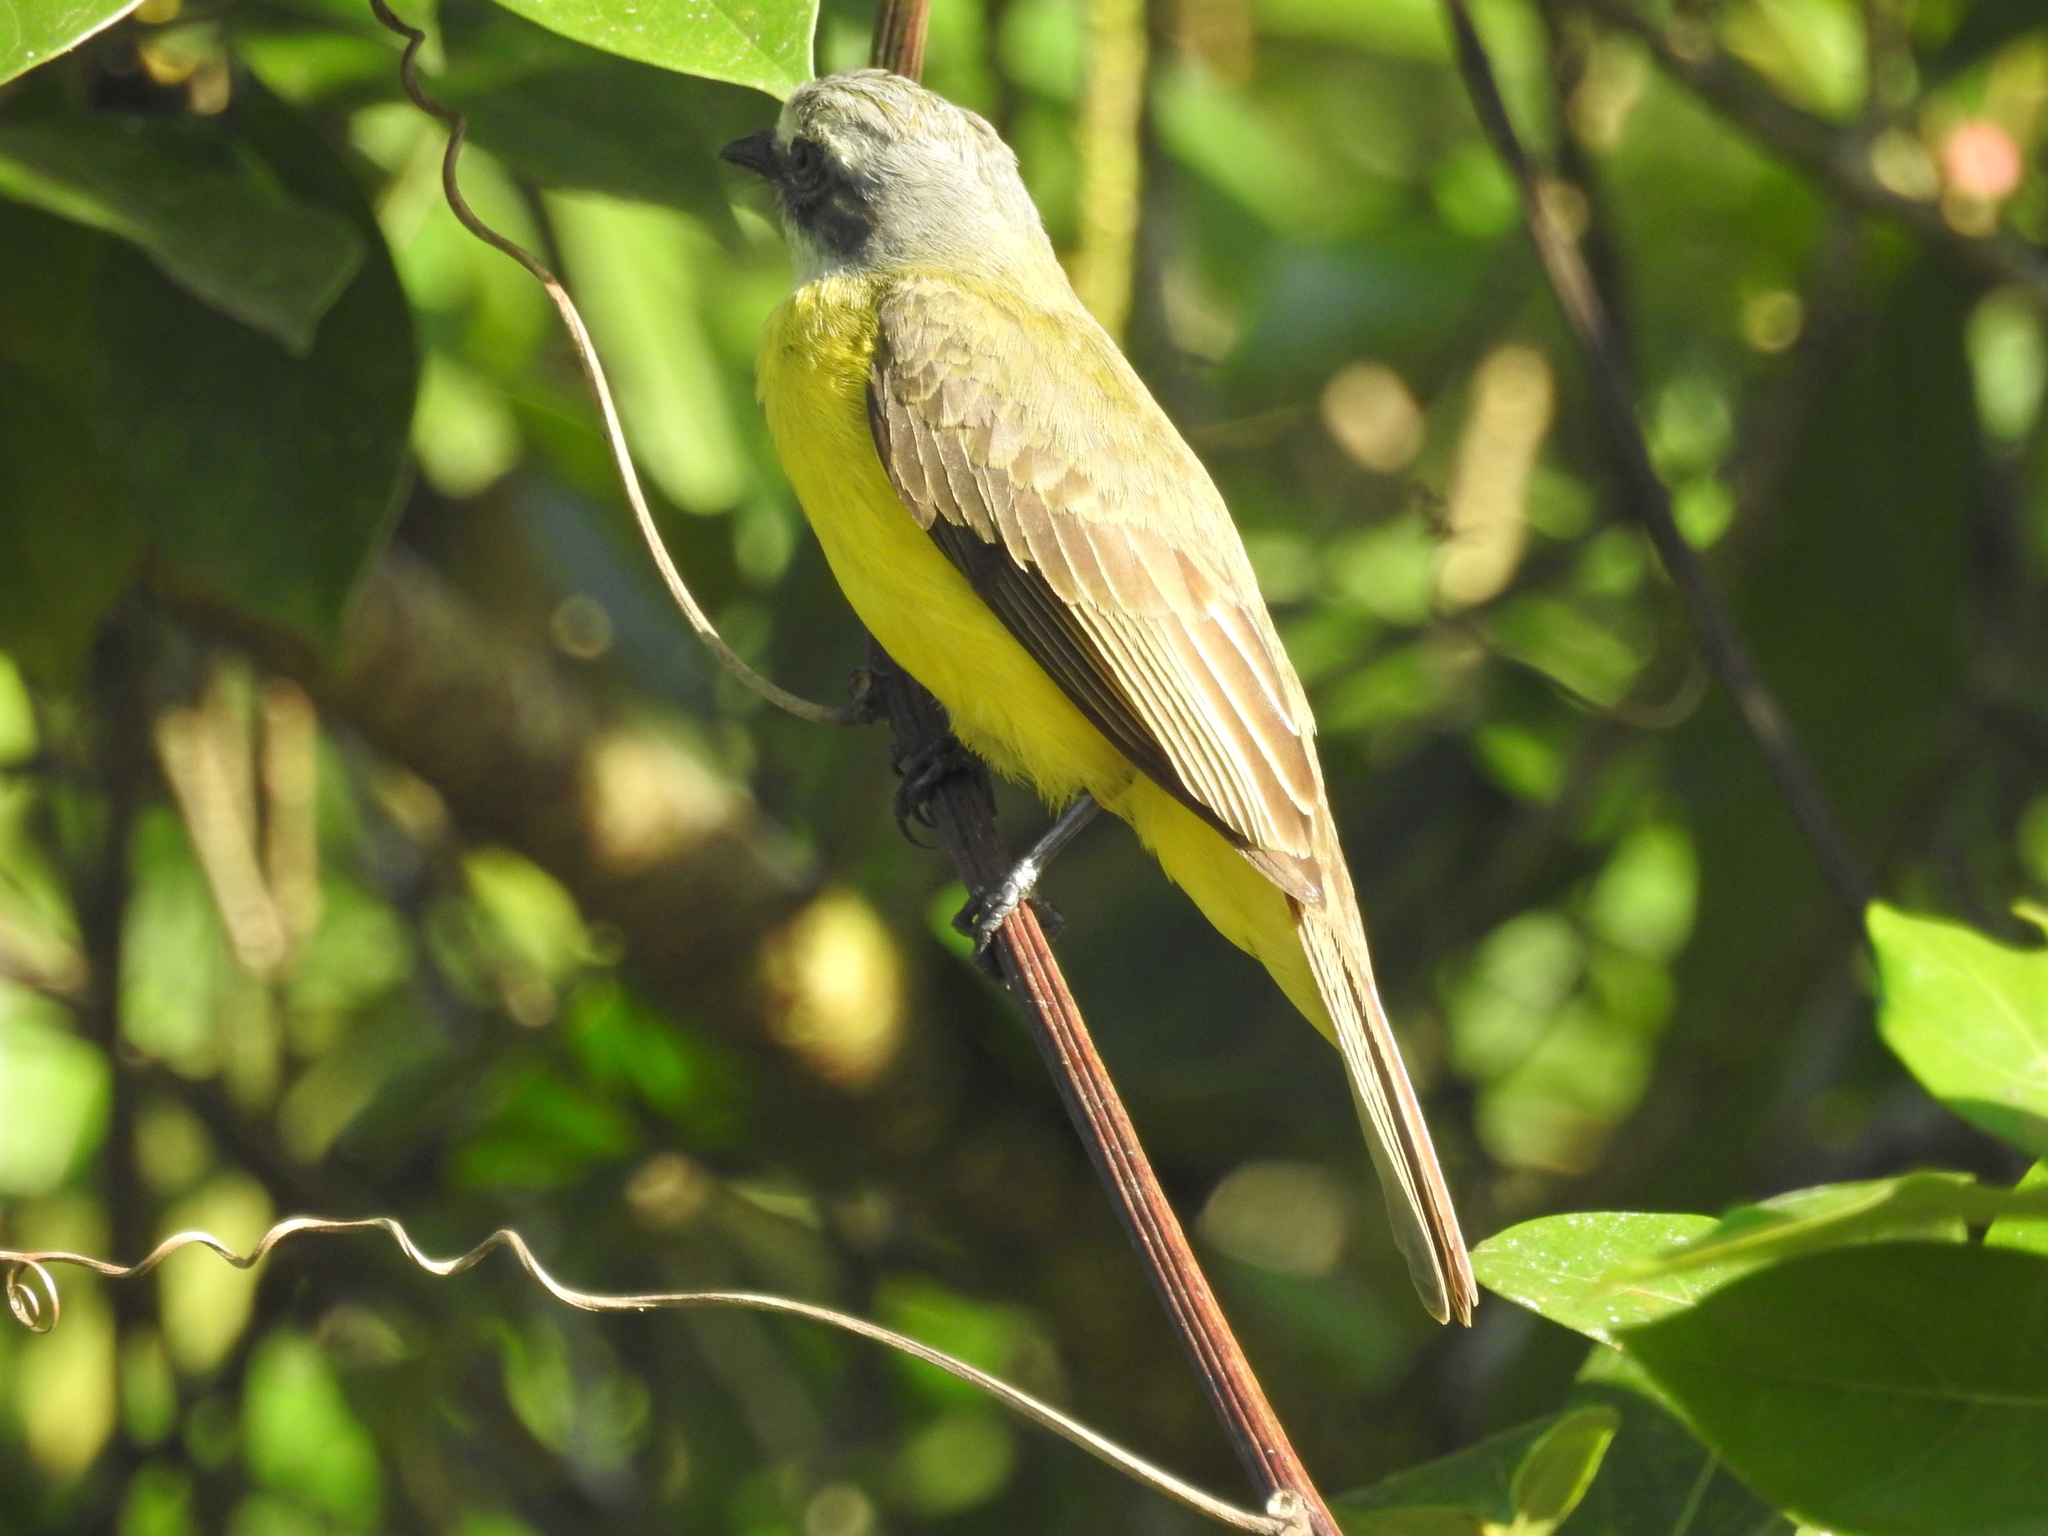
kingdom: Animalia
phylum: Chordata
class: Aves
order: Passeriformes
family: Tyrannidae
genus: Myiozetetes
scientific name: Myiozetetes granadensis
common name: Gray-capped flycatcher
